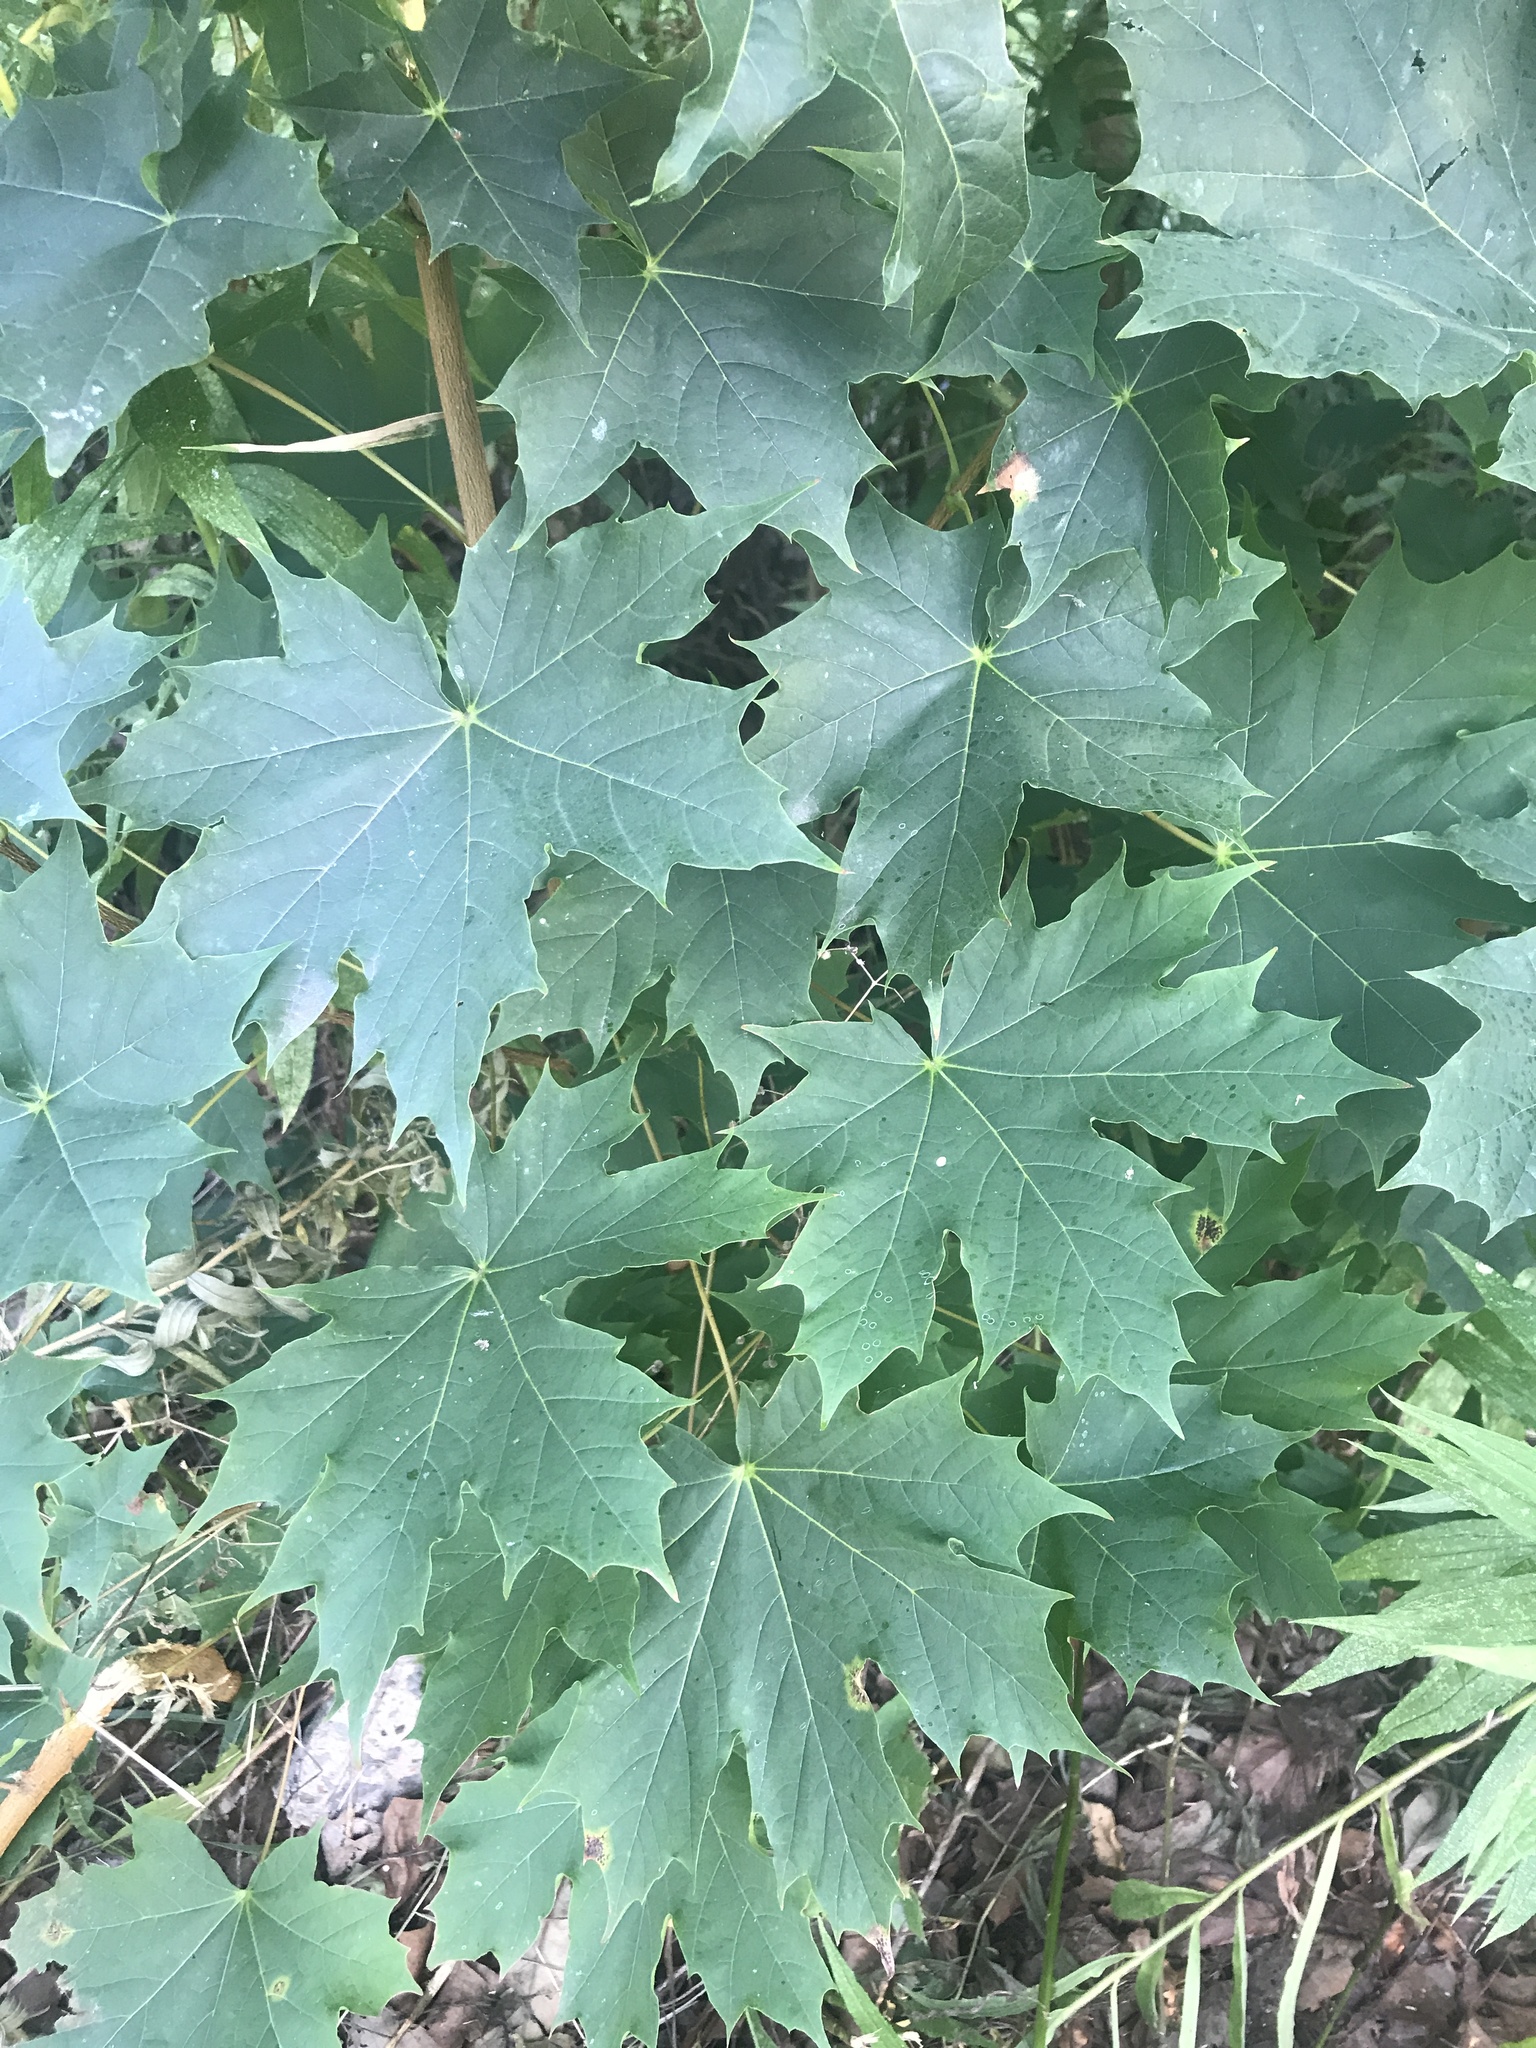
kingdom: Plantae
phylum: Tracheophyta
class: Magnoliopsida
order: Sapindales
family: Sapindaceae
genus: Acer
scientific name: Acer platanoides
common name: Norway maple
